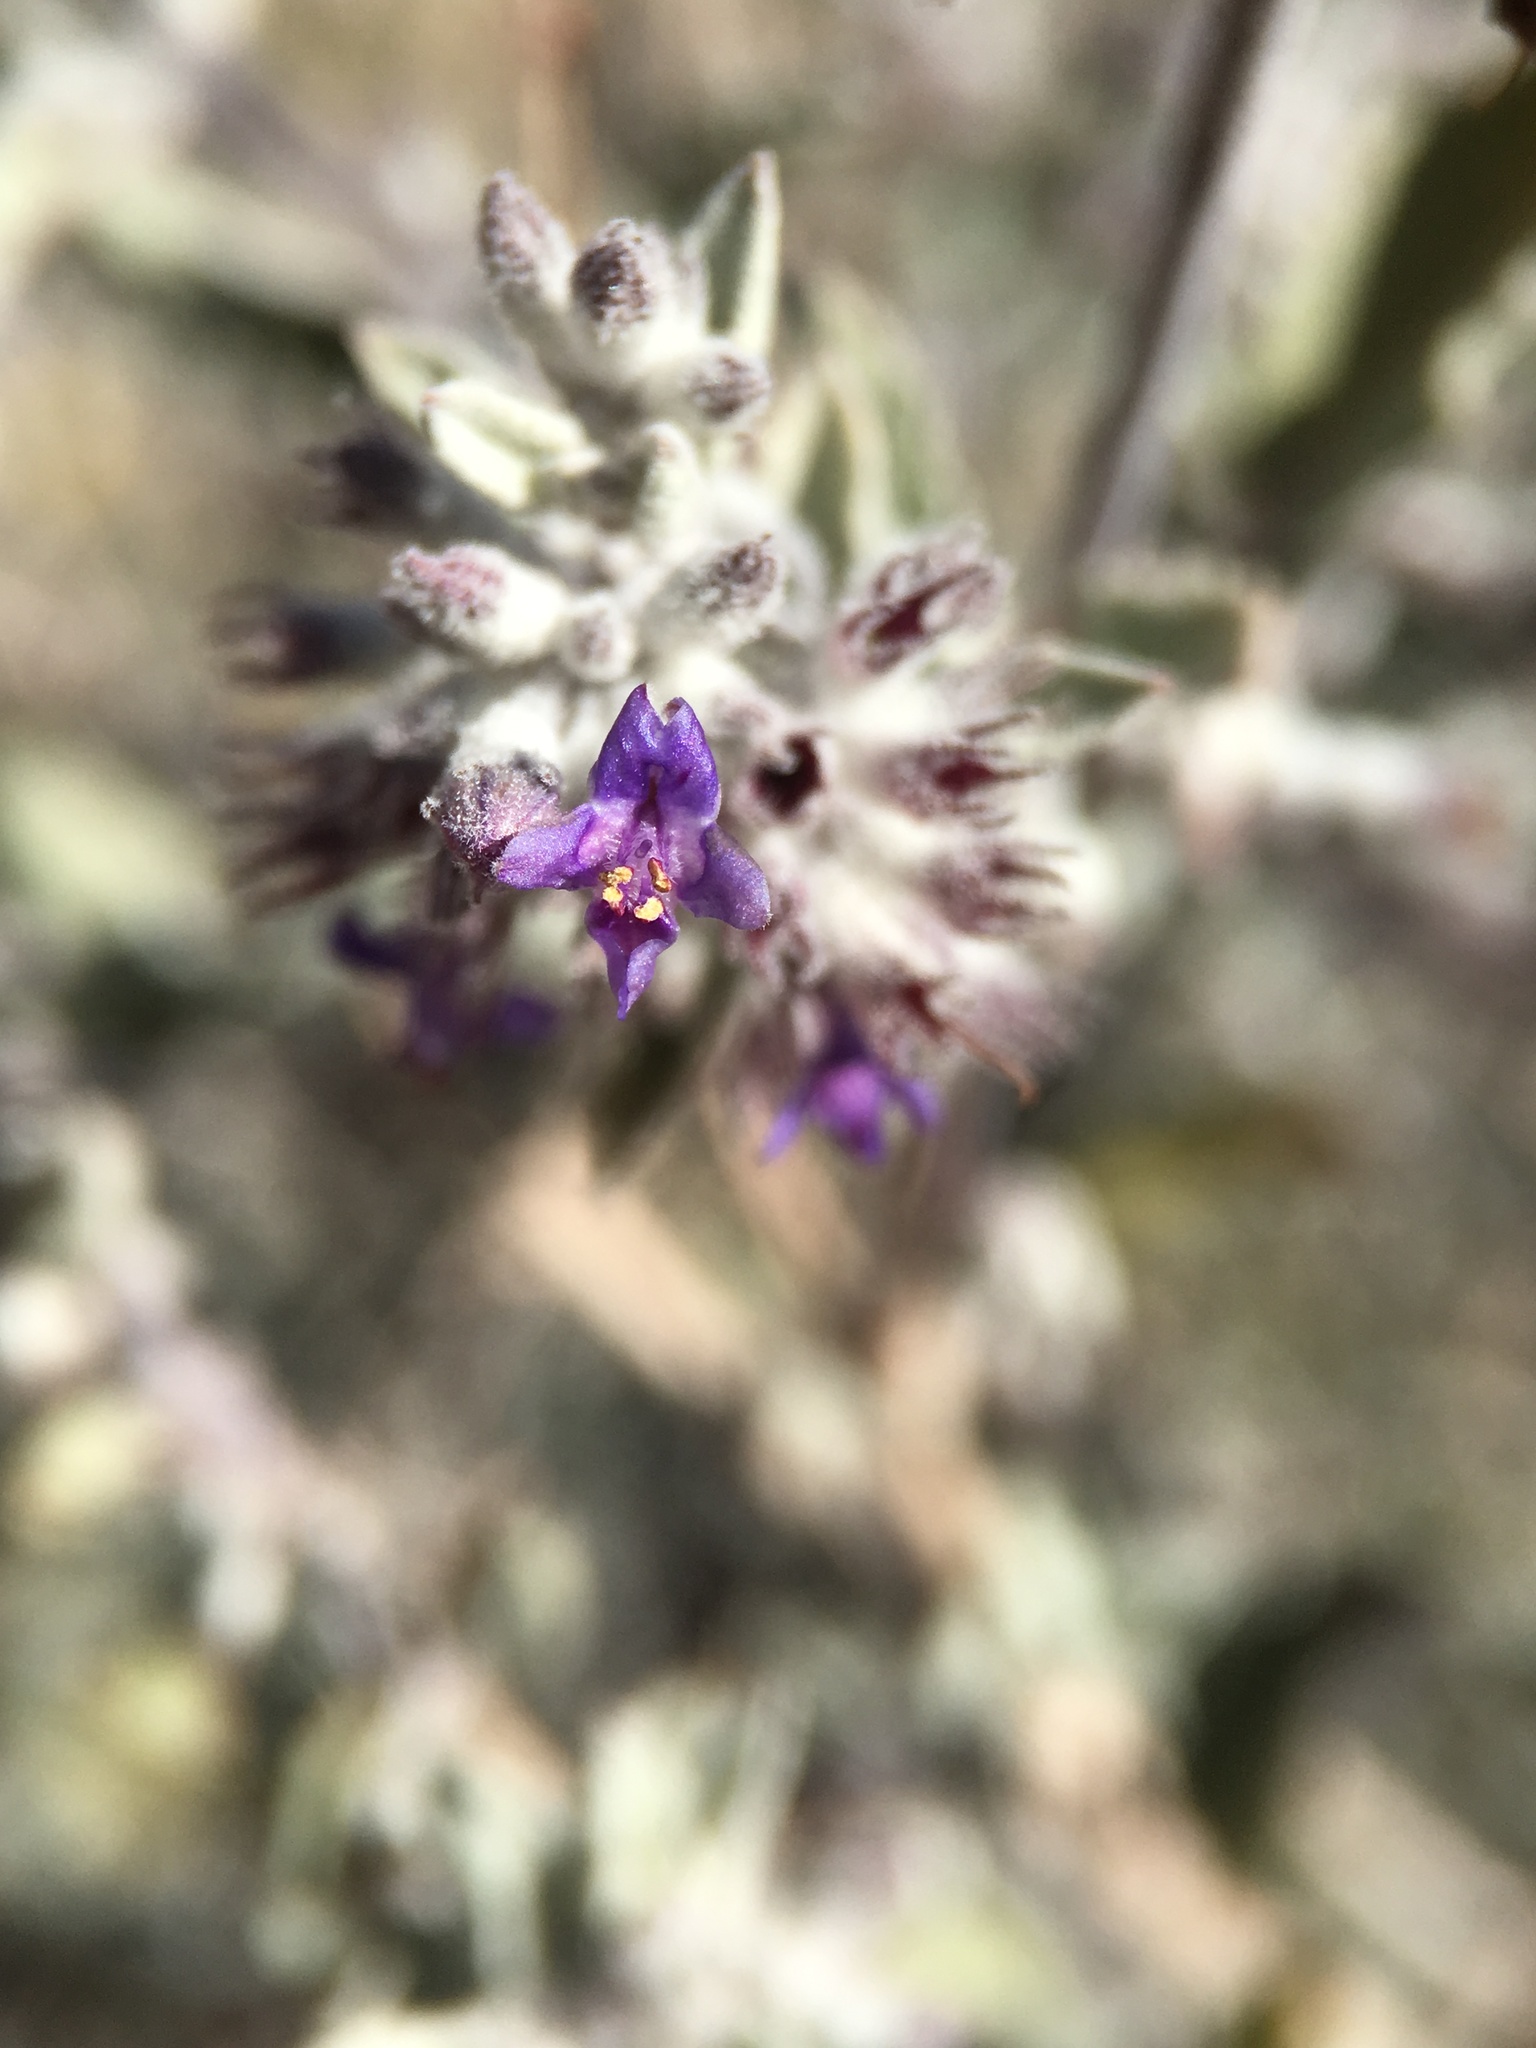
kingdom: Plantae
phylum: Tracheophyta
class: Magnoliopsida
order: Lamiales
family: Lamiaceae
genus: Condea
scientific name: Condea emoryi
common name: Chia
